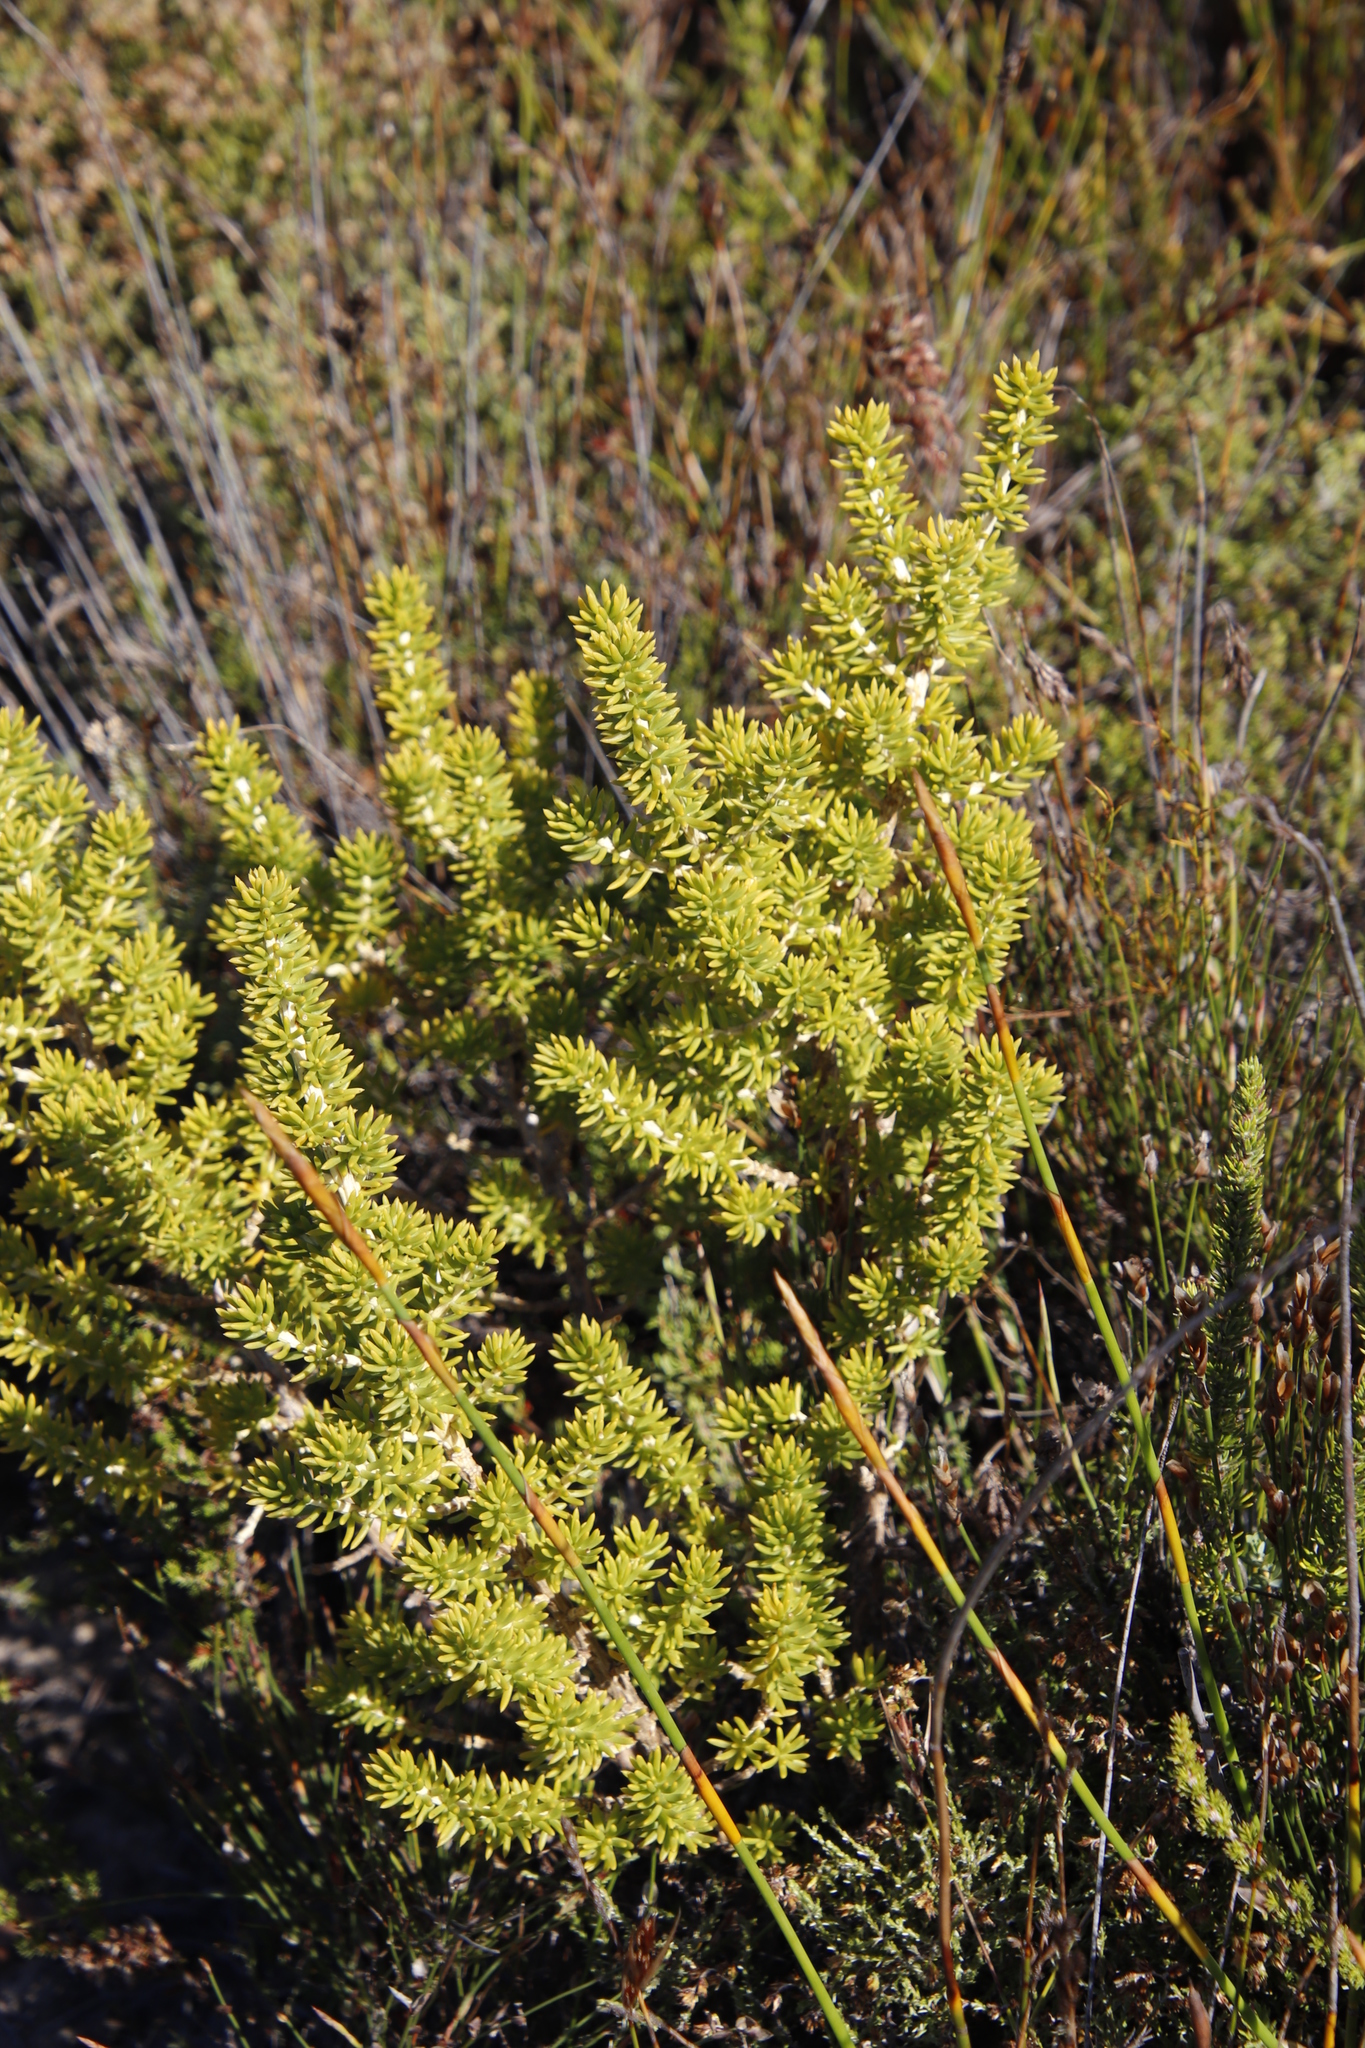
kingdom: Plantae
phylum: Tracheophyta
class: Magnoliopsida
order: Fabales
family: Fabaceae
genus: Aspalathus
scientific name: Aspalathus carnosa
